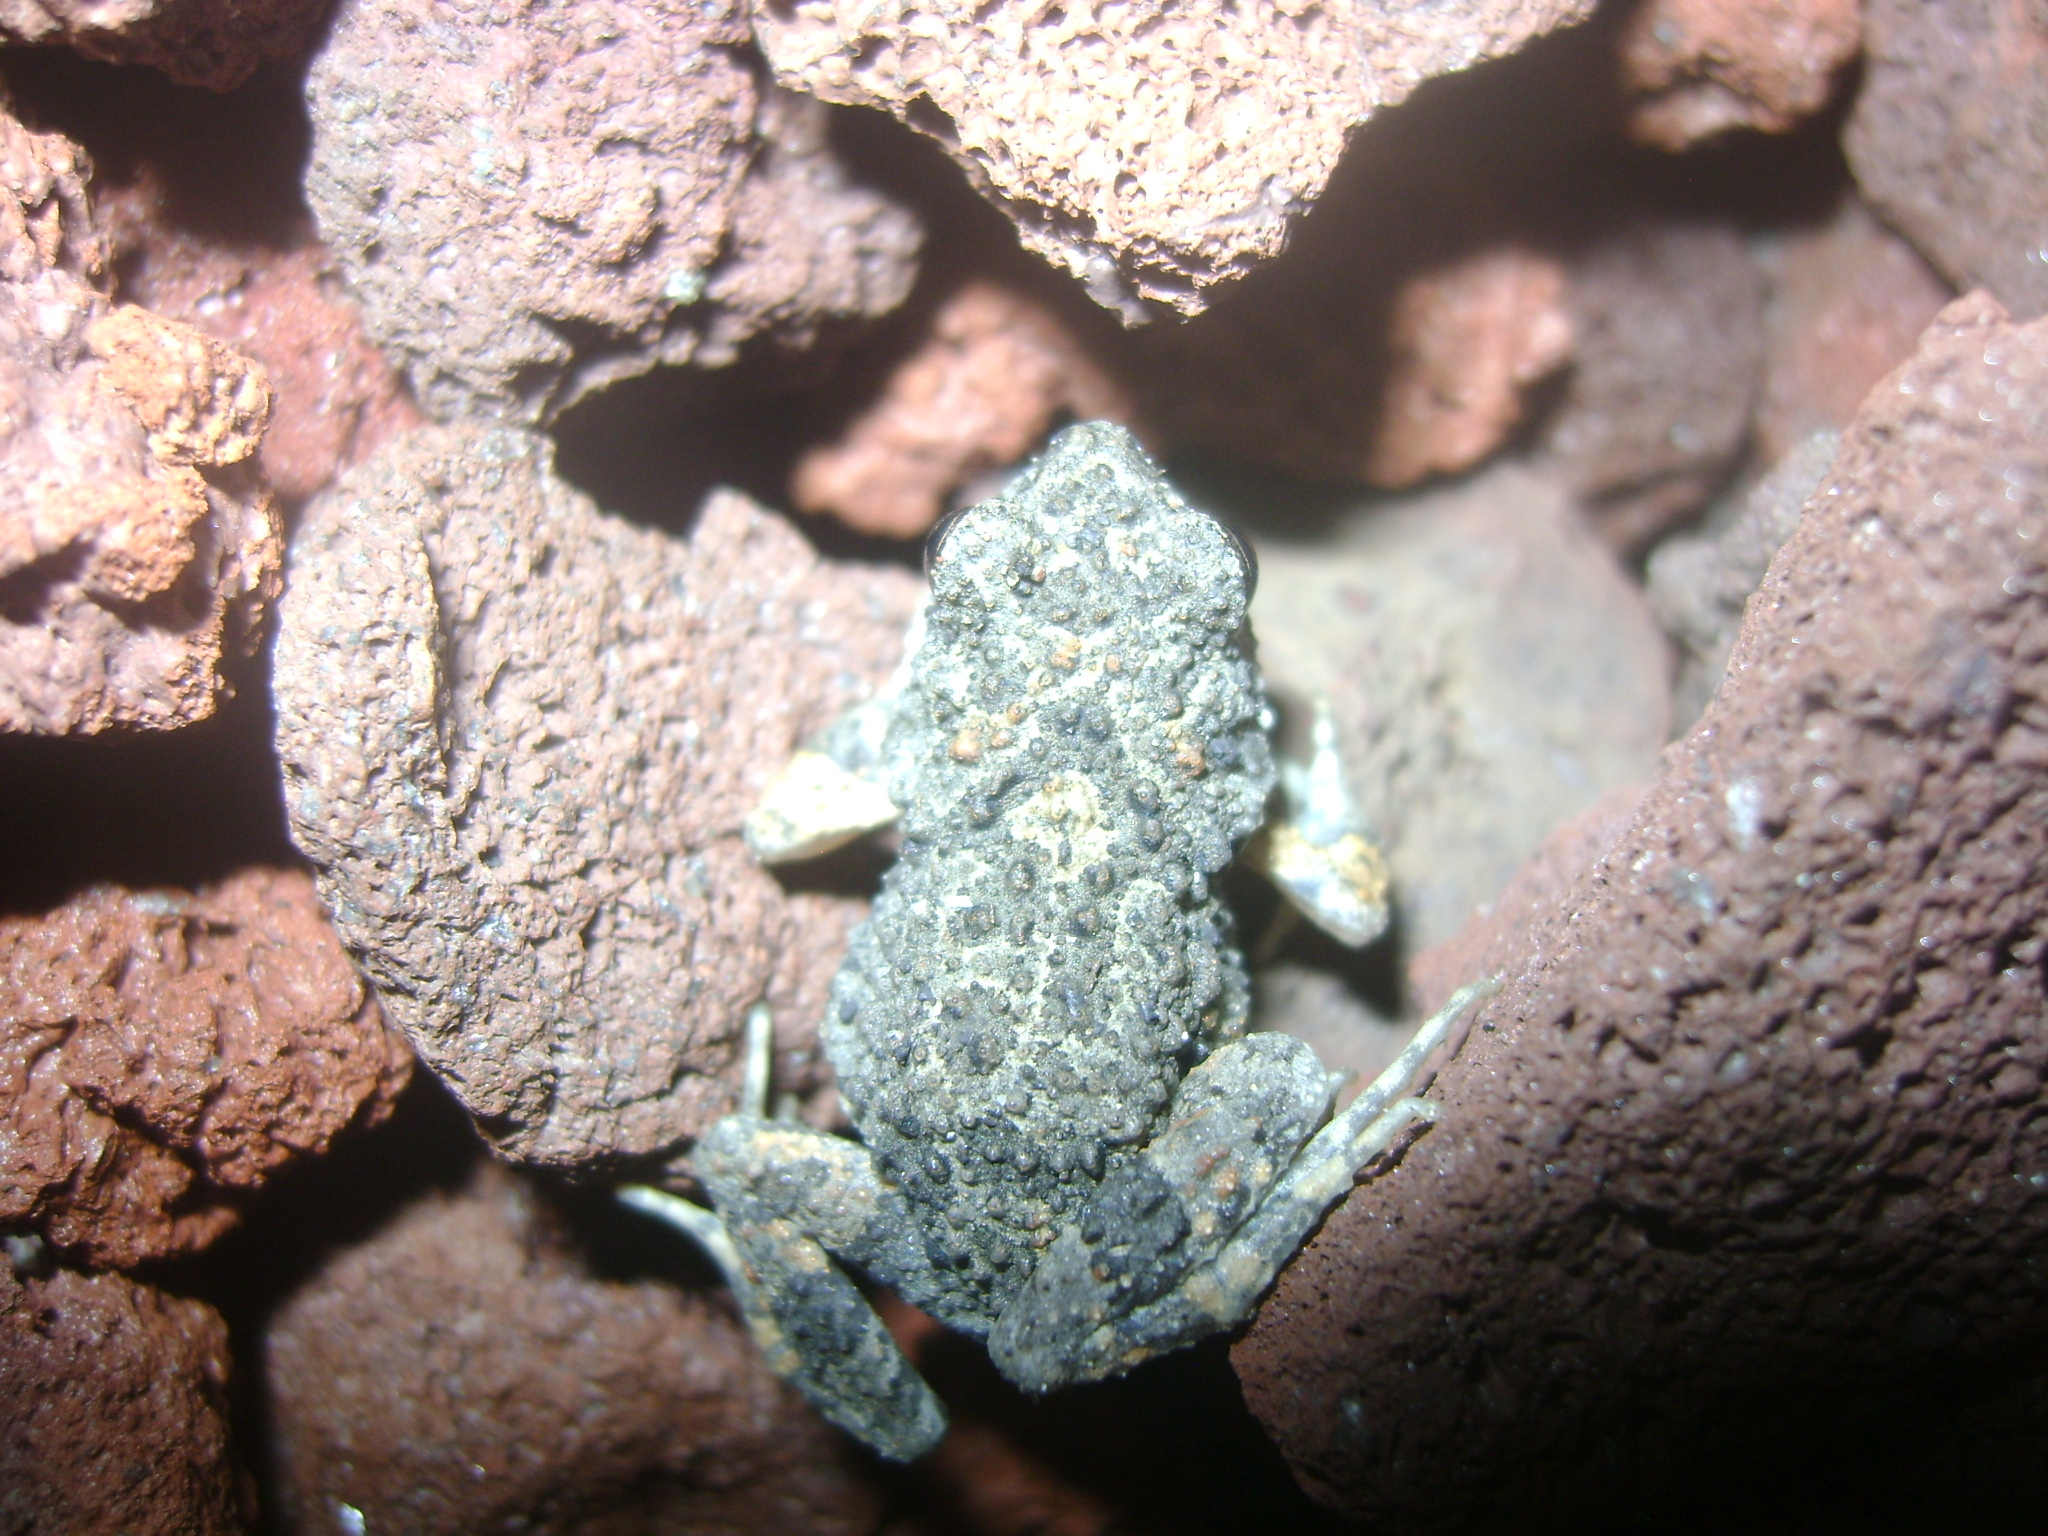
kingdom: Animalia
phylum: Chordata
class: Amphibia
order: Anura
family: Bufonidae
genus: Incilius
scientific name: Incilius valliceps
